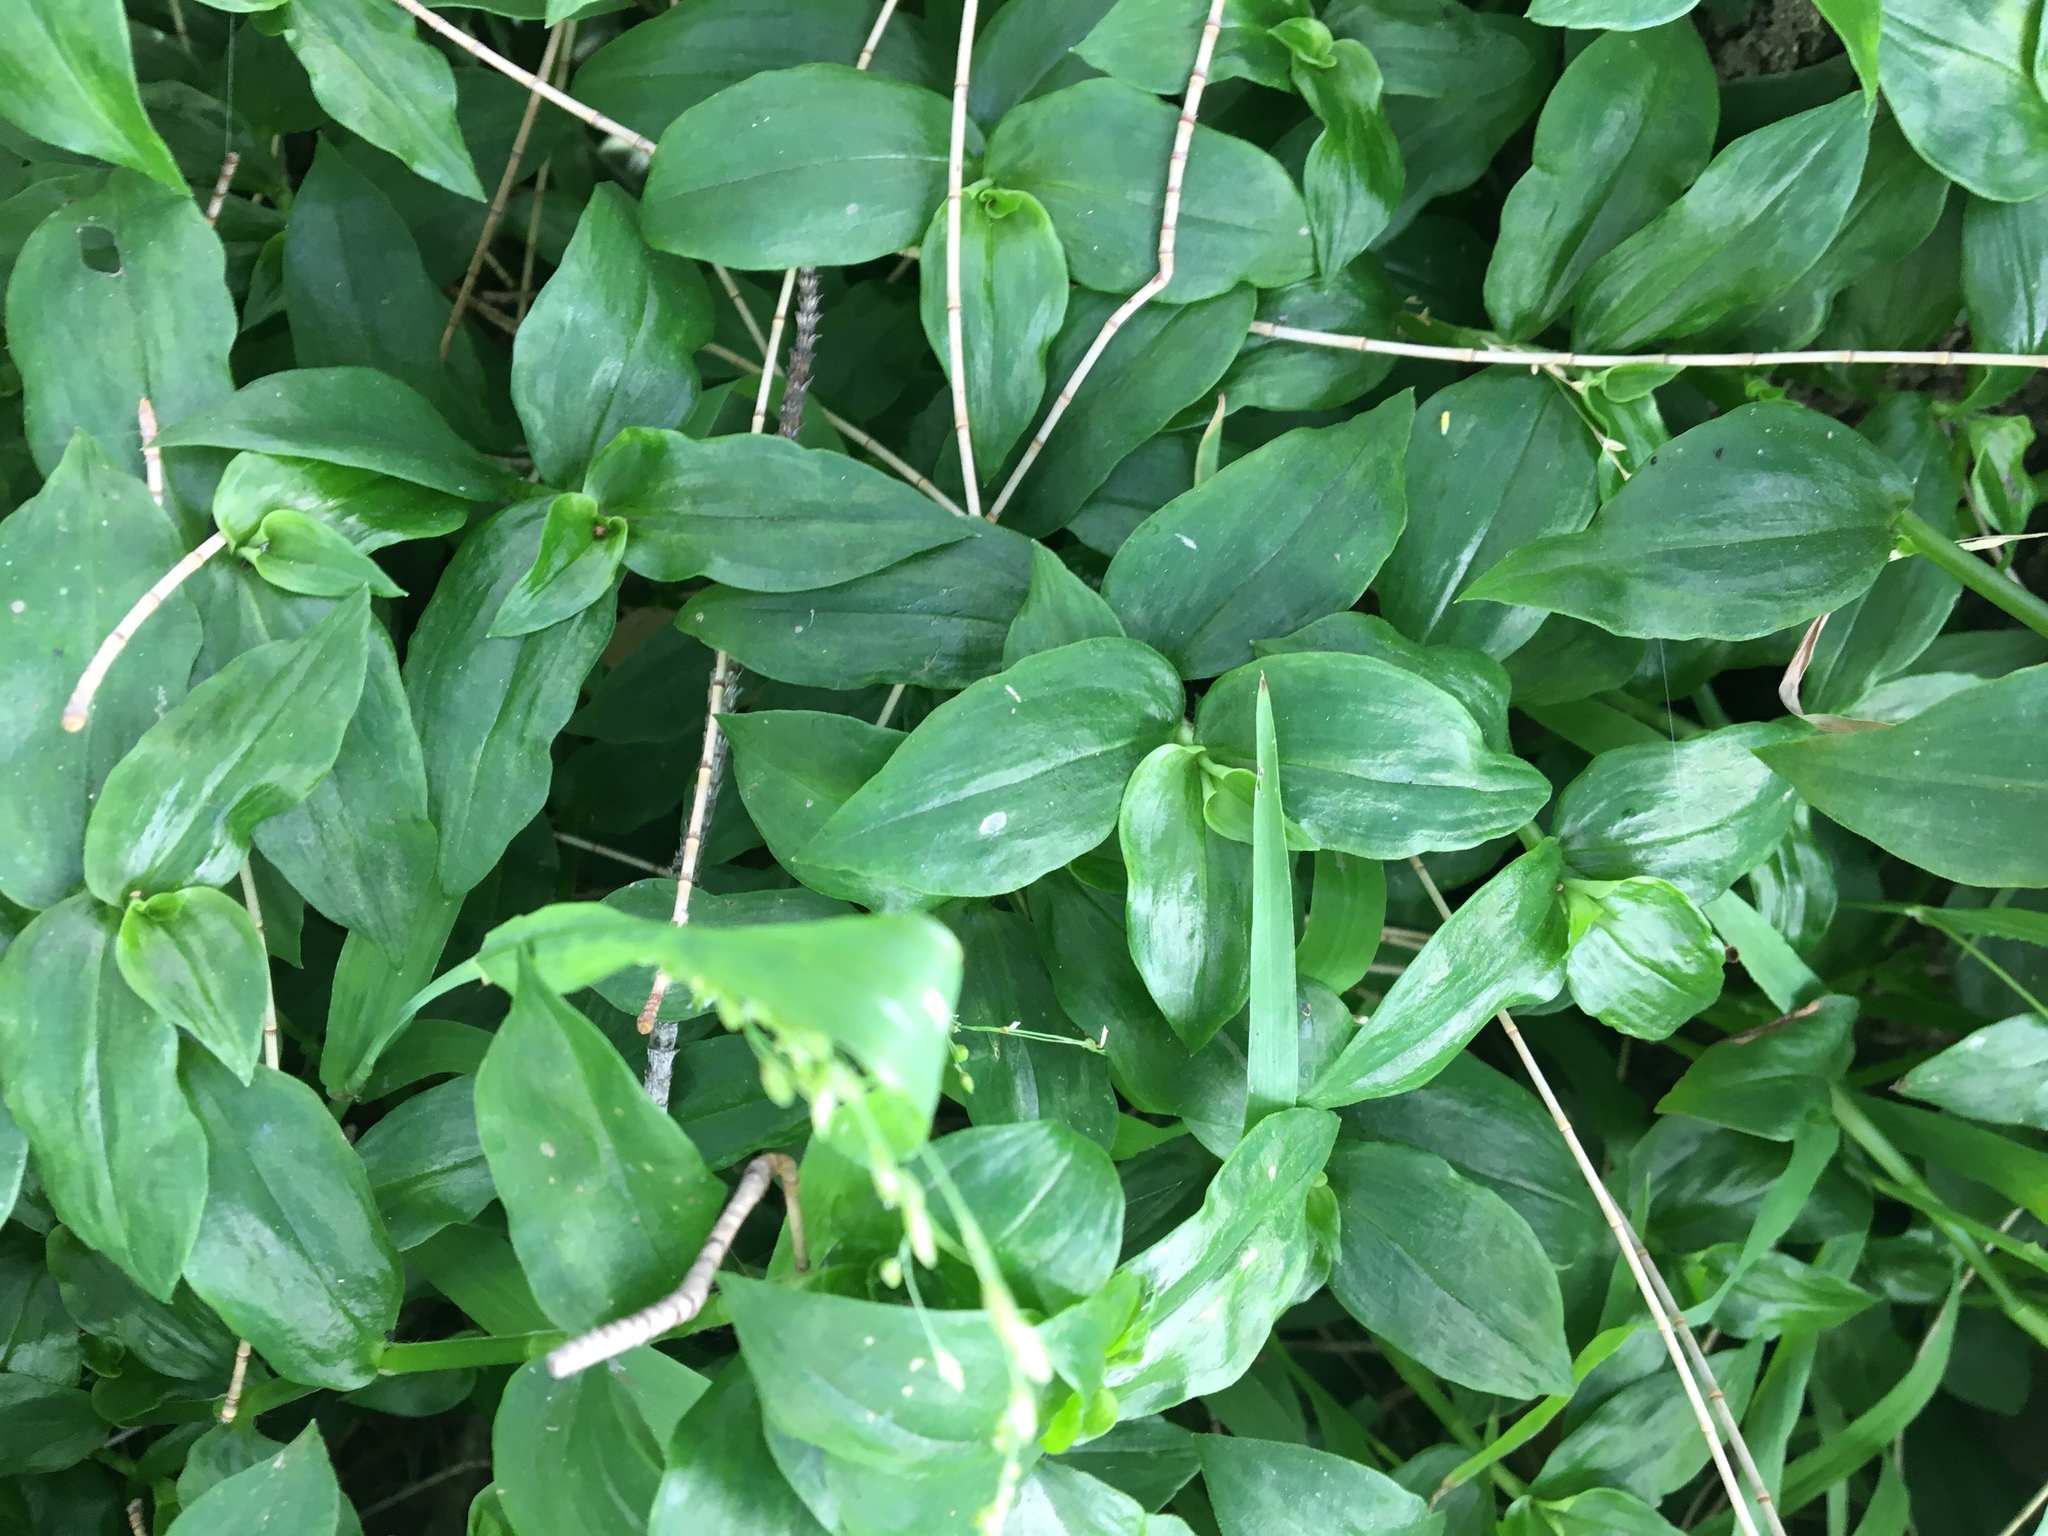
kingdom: Plantae
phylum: Tracheophyta
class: Liliopsida
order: Commelinales
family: Commelinaceae
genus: Tradescantia
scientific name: Tradescantia fluminensis
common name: Wandering-jew
